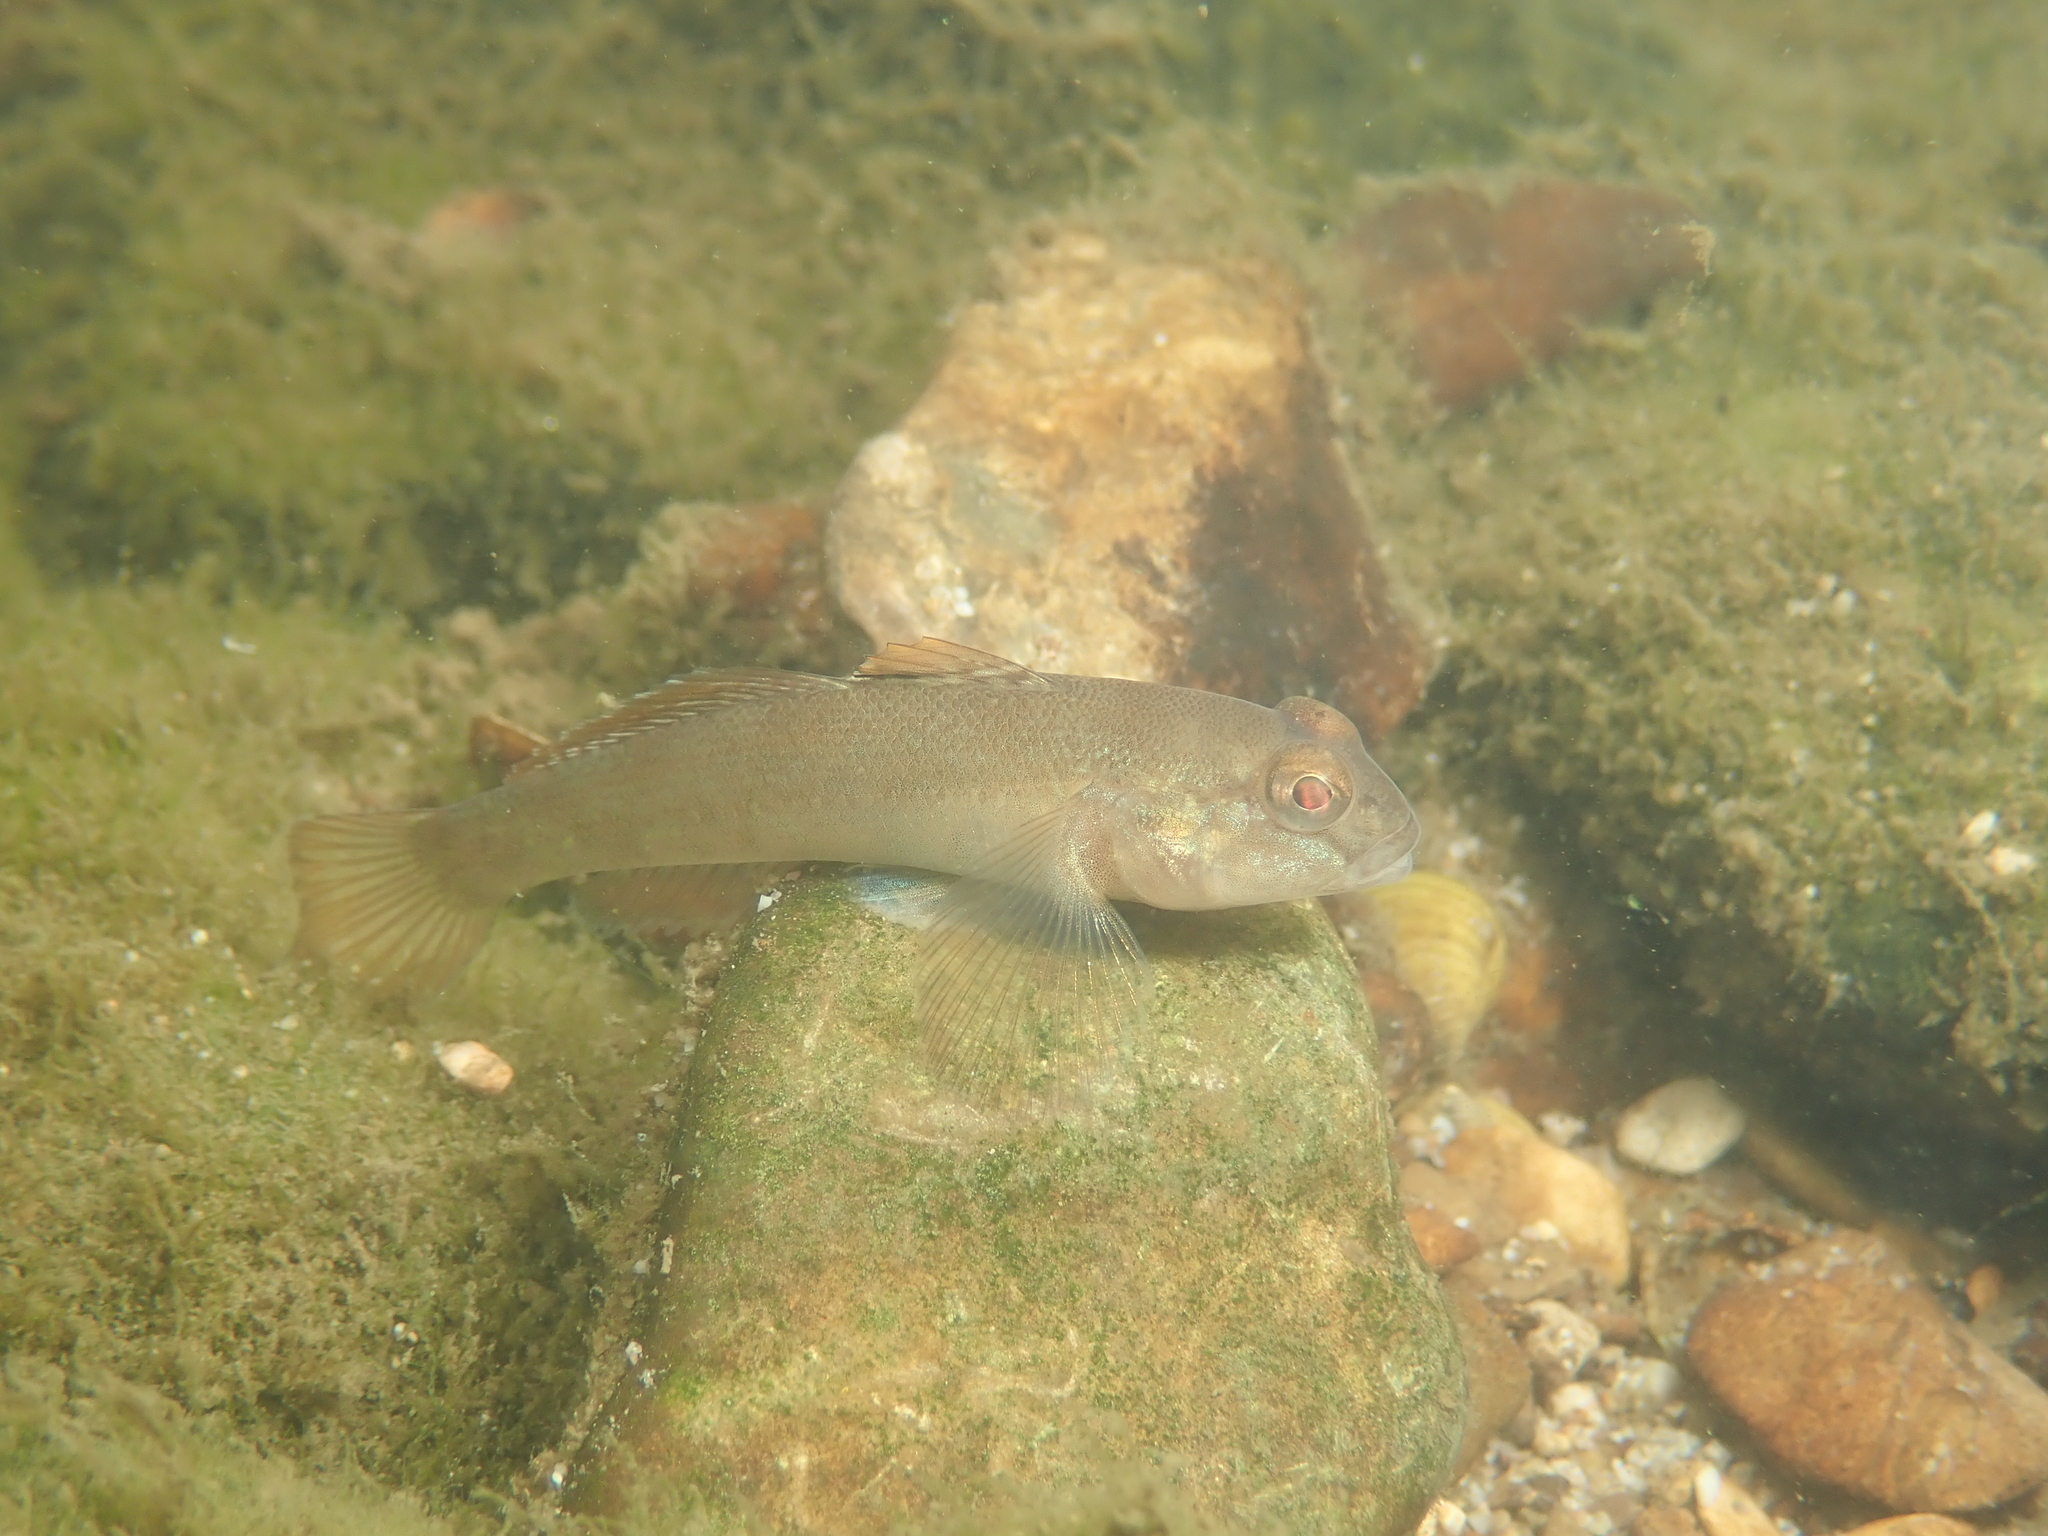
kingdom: Animalia
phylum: Chordata
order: Perciformes
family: Gobiidae
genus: Neogobius
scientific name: Neogobius melanostomus
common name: Round goby
